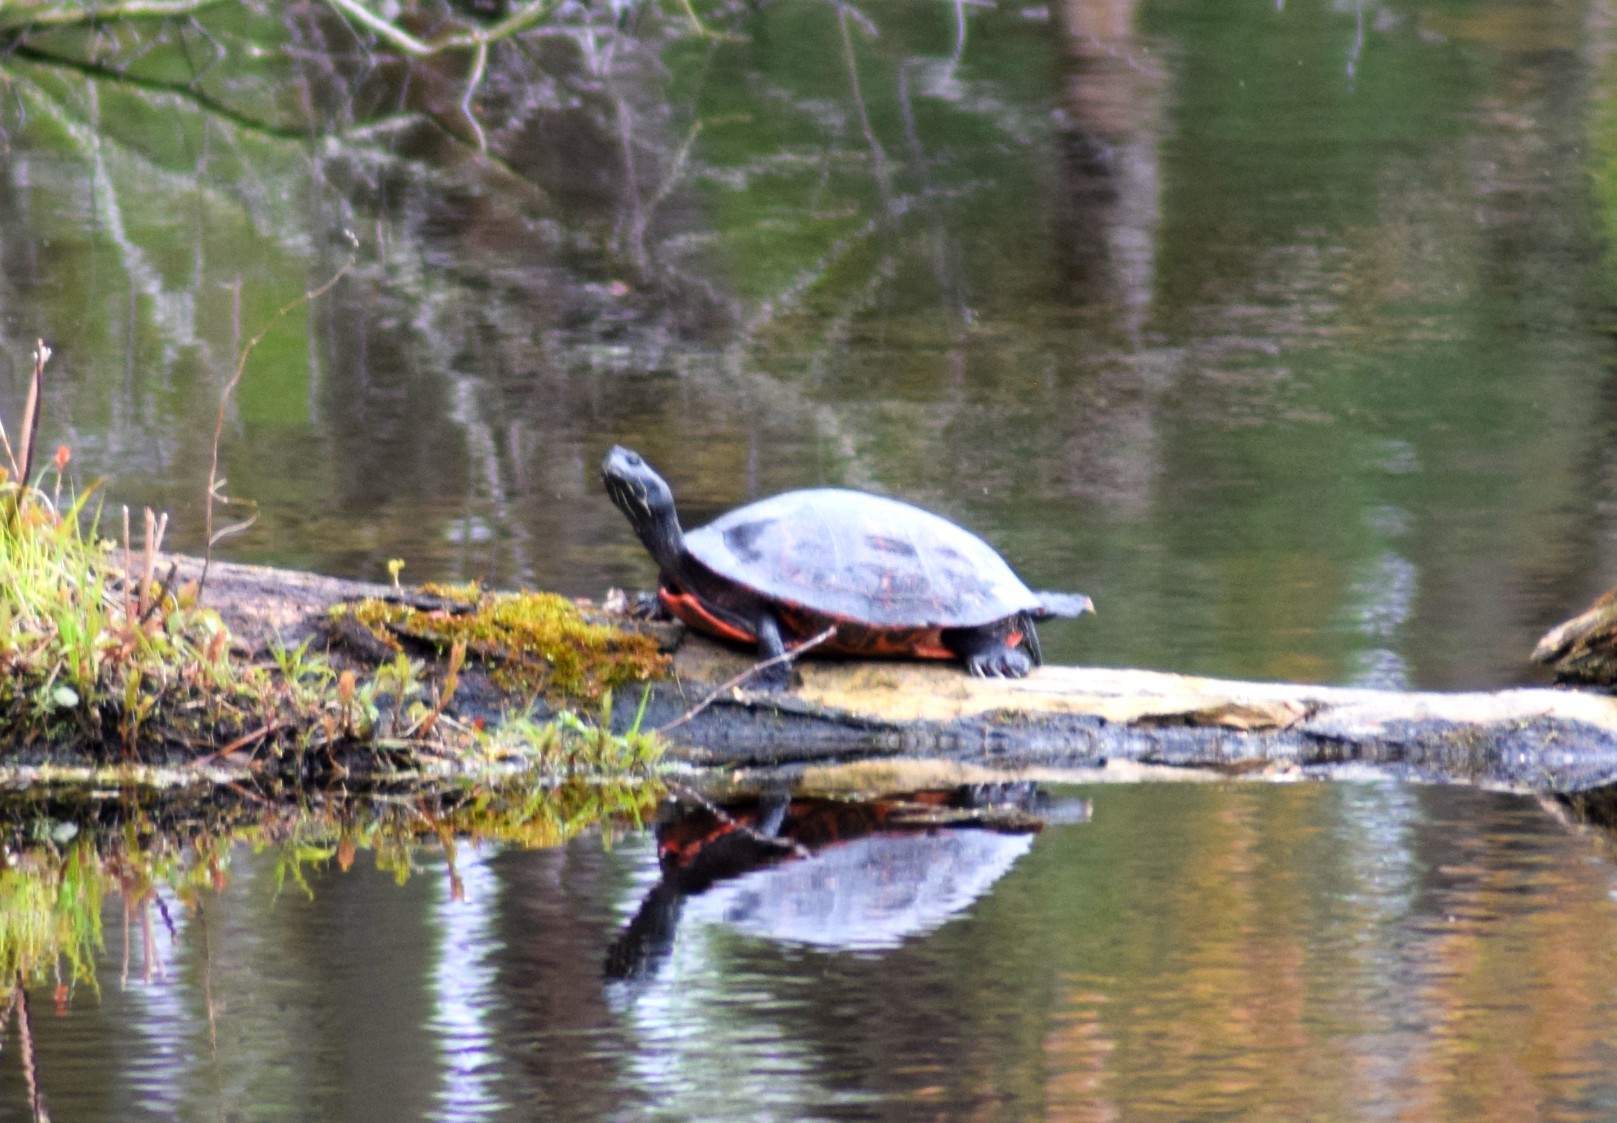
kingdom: Animalia
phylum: Chordata
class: Testudines
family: Emydidae
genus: Pseudemys
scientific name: Pseudemys rubriventris
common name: American red-bellied turtle
